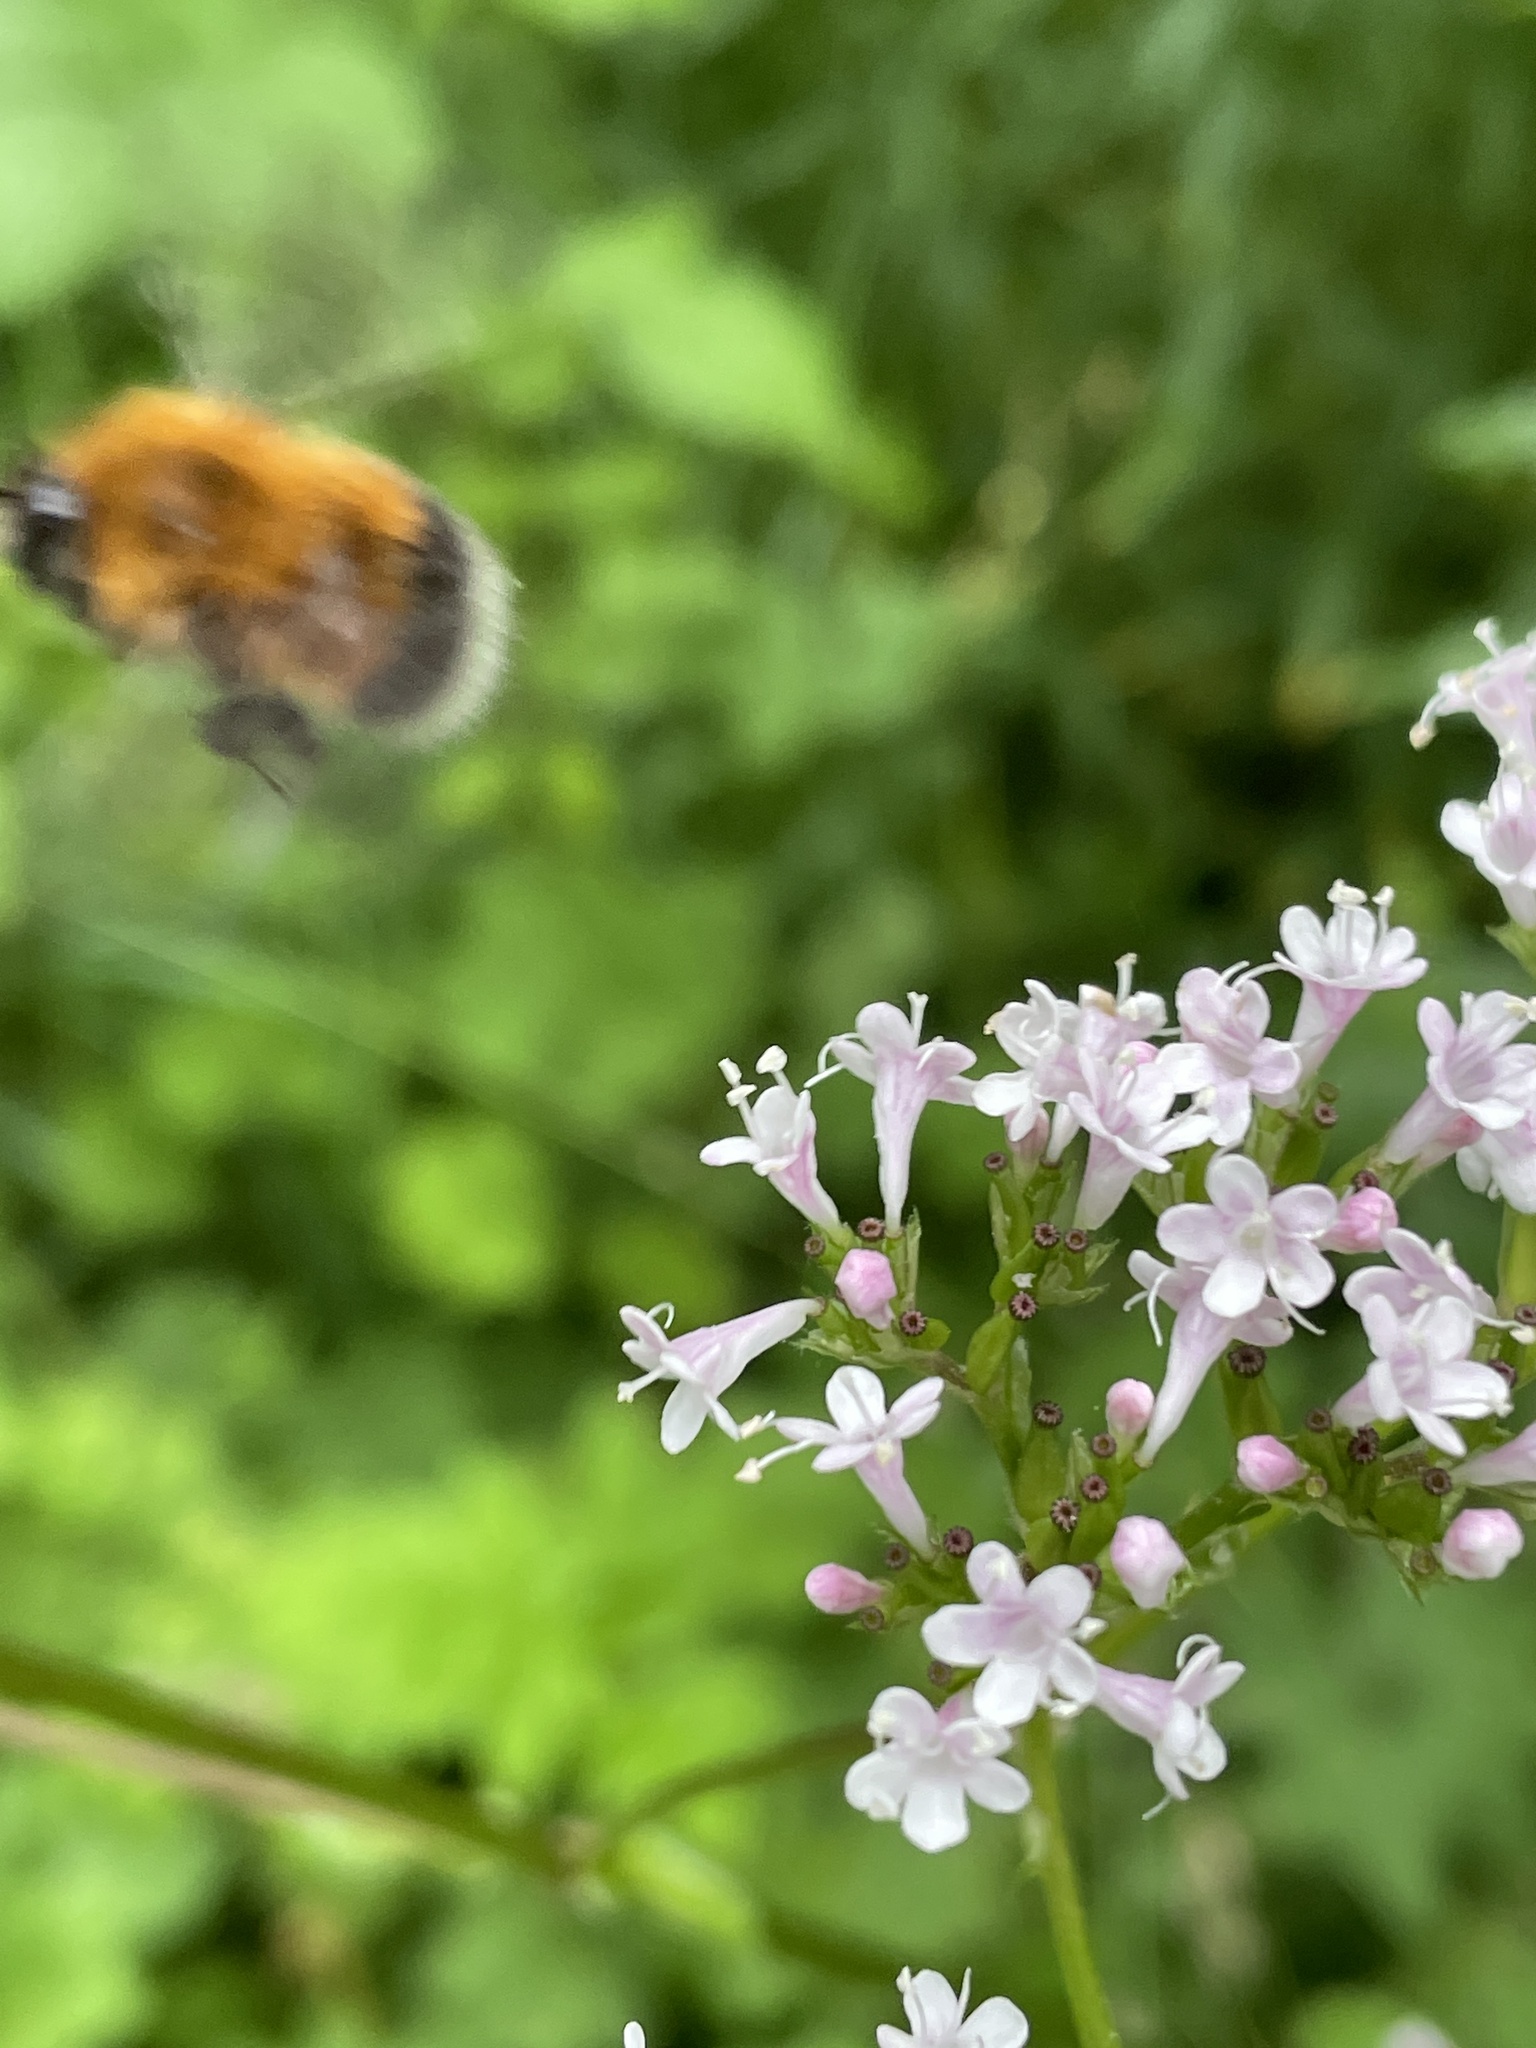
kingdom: Animalia
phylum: Arthropoda
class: Insecta
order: Hymenoptera
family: Apidae
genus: Bombus
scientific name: Bombus hypnorum
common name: New garden bumblebee
